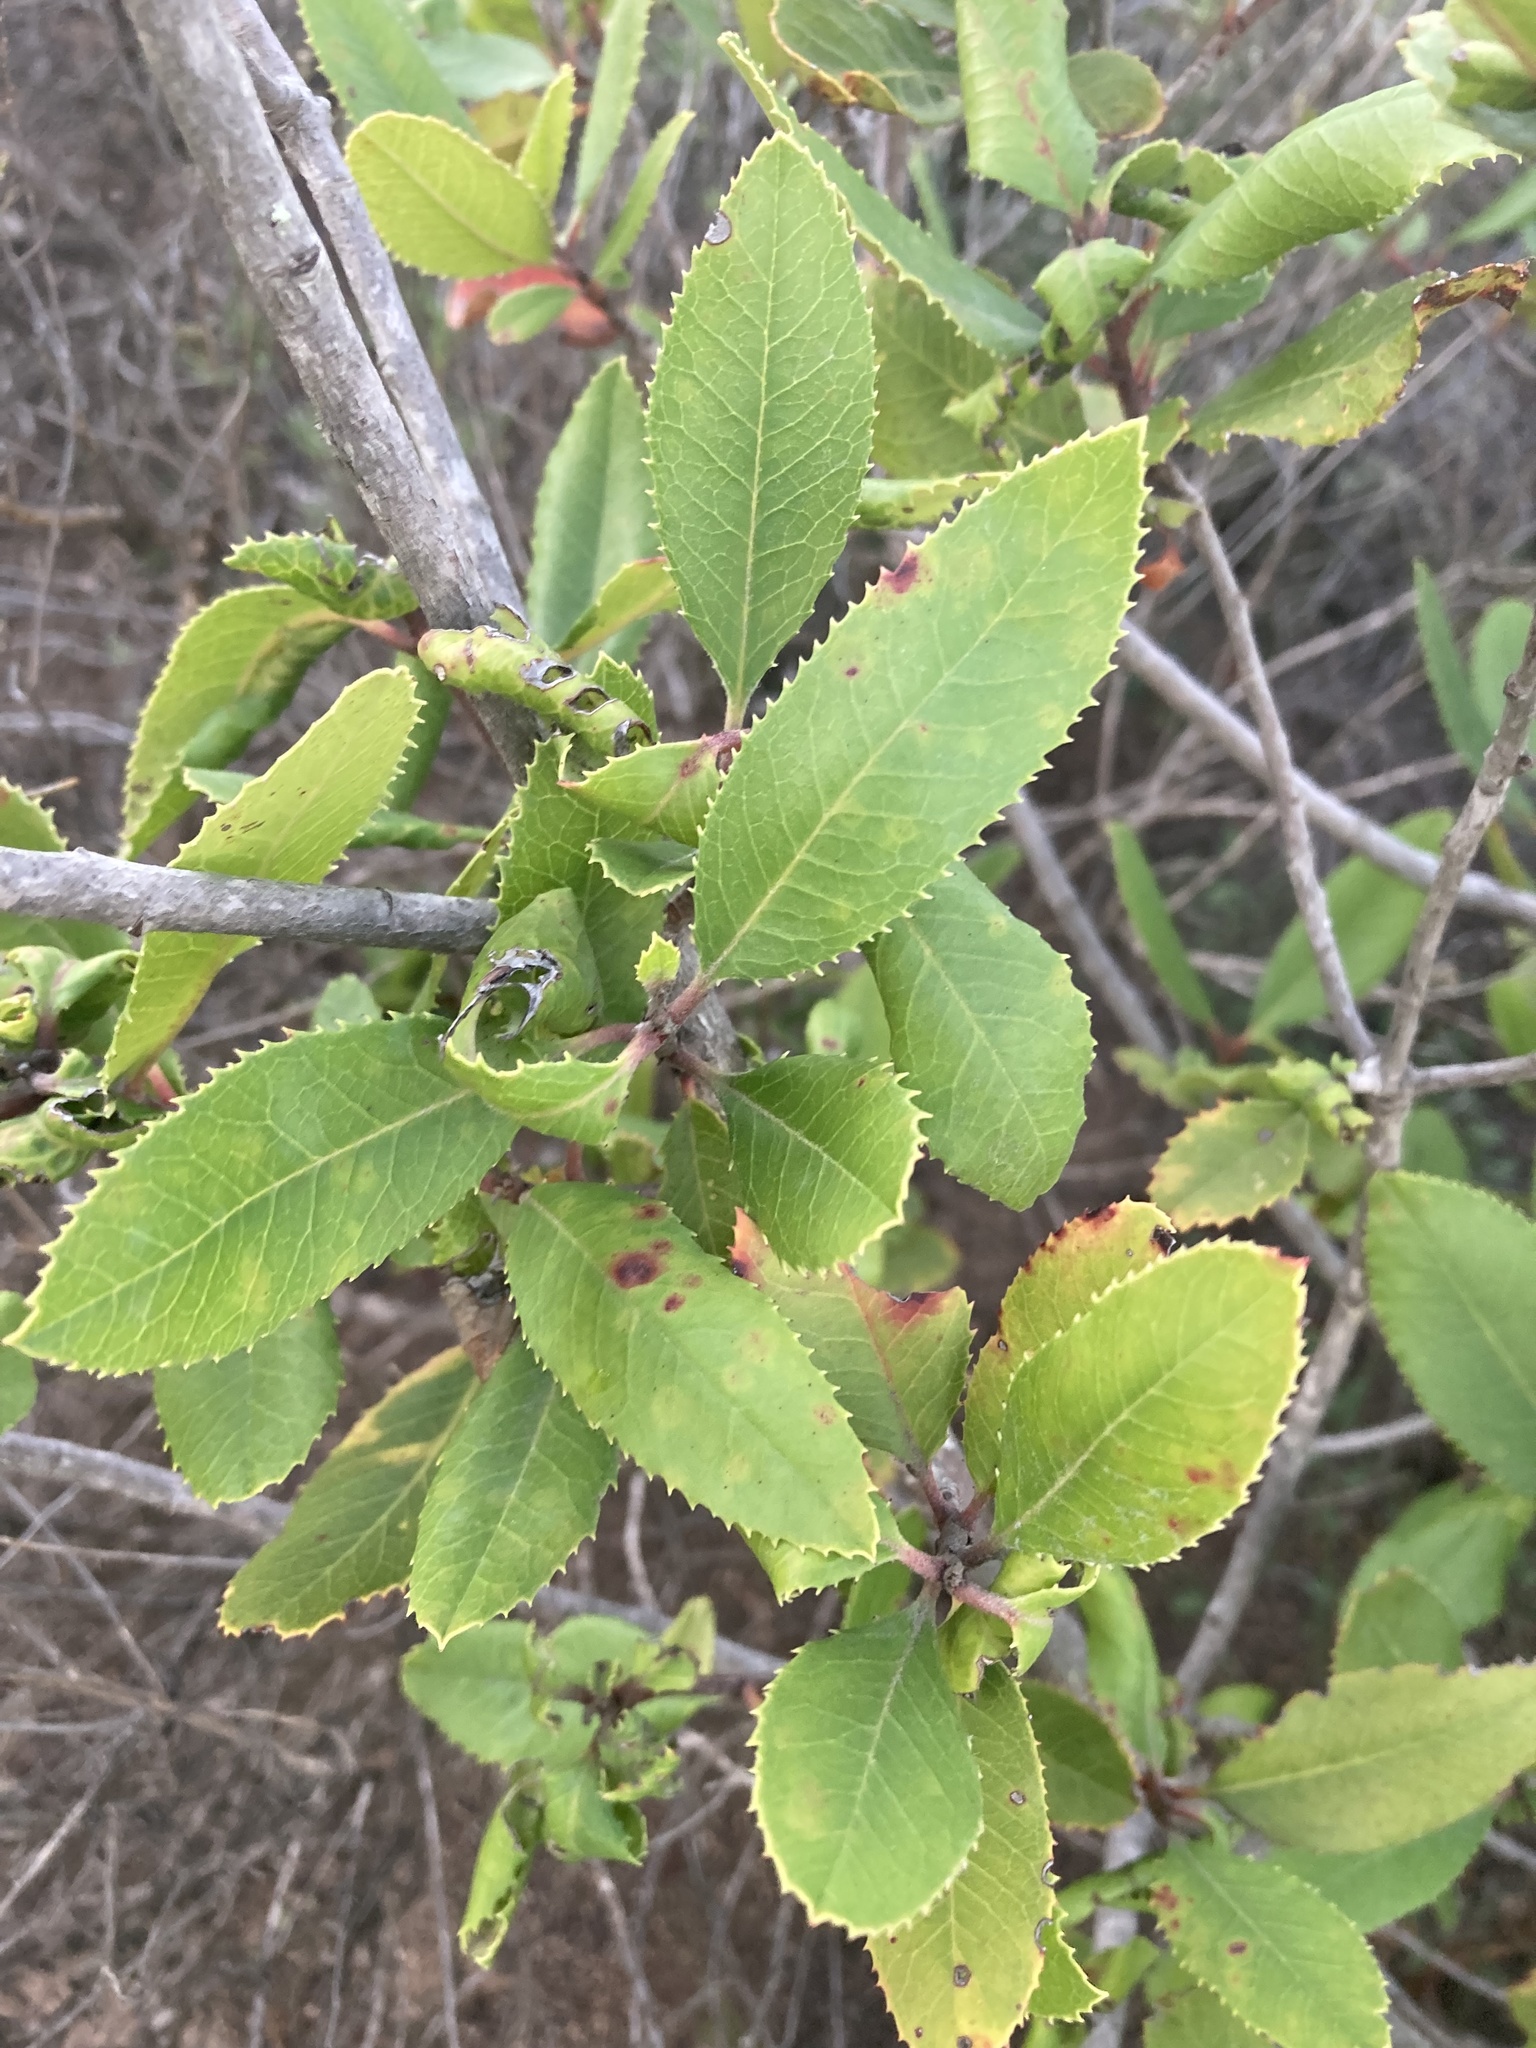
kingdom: Plantae
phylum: Tracheophyta
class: Magnoliopsida
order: Rosales
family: Rosaceae
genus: Heteromeles
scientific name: Heteromeles arbutifolia
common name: California-holly
